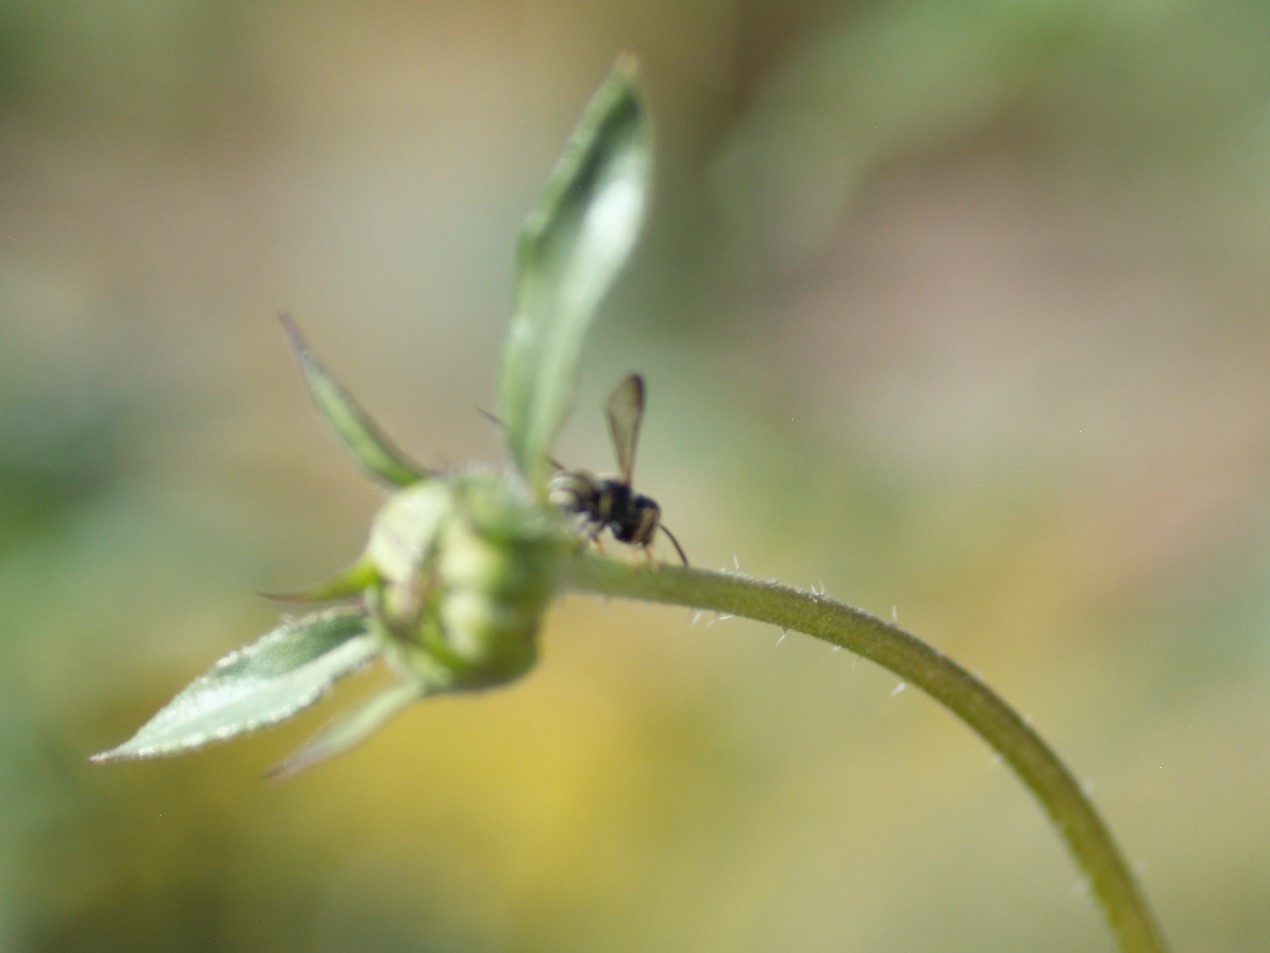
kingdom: Animalia
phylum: Arthropoda
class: Insecta
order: Hymenoptera
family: Crabronidae
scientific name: Crabronidae
